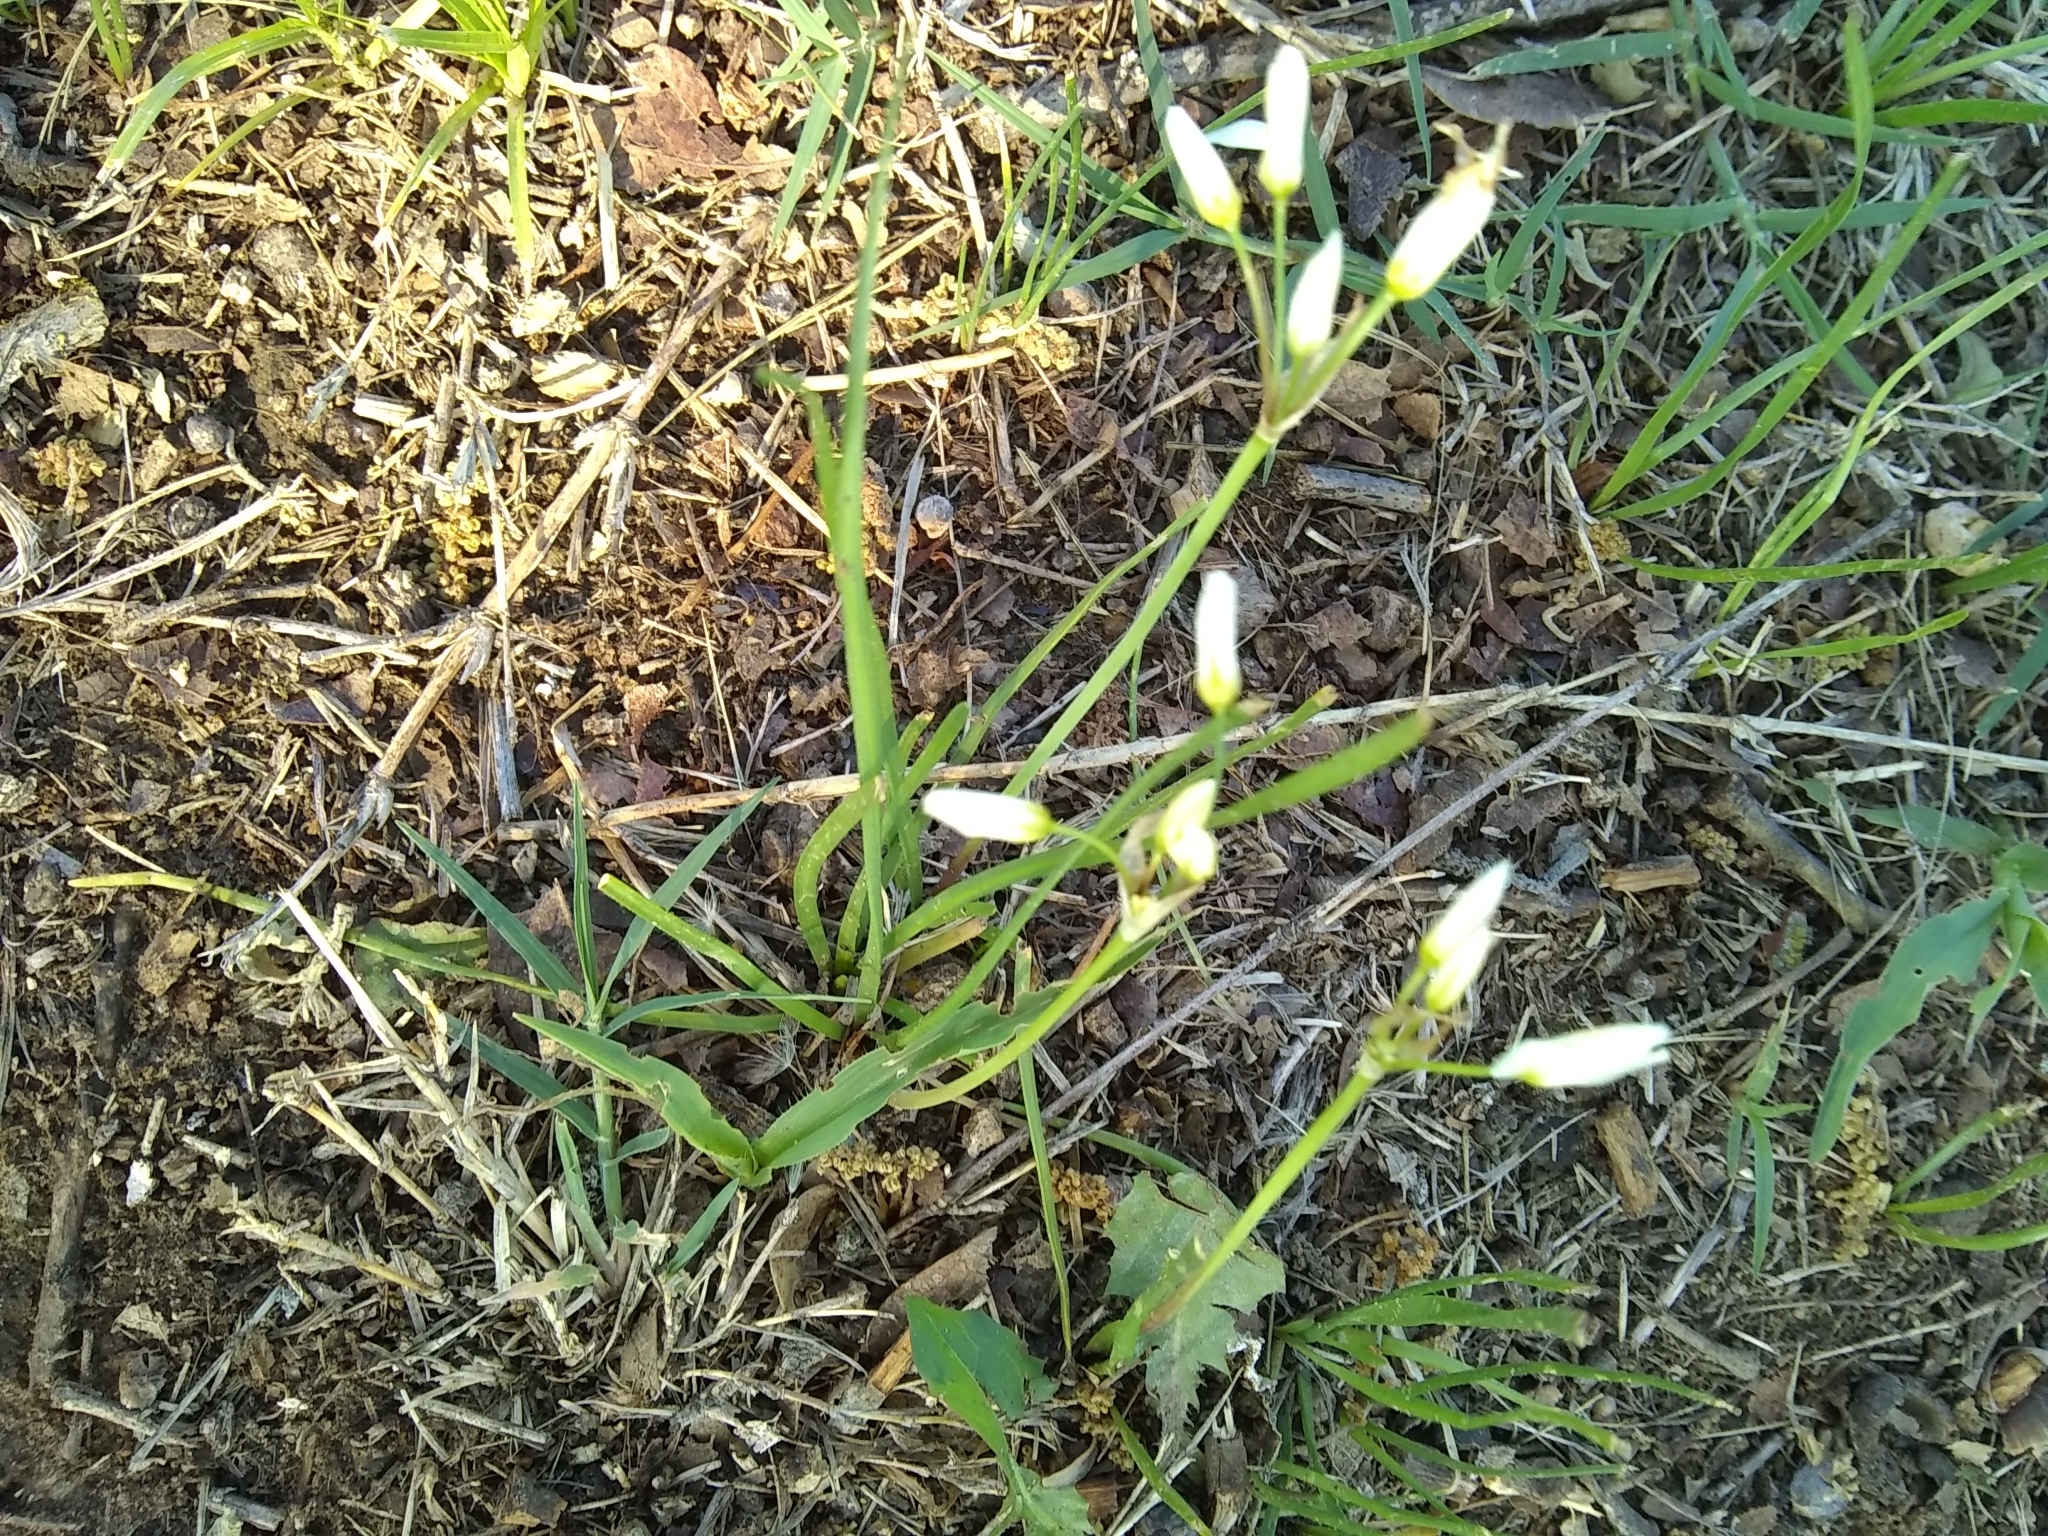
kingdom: Plantae
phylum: Tracheophyta
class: Liliopsida
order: Asparagales
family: Amaryllidaceae
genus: Nothoscordum
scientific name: Nothoscordum bivalve
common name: Crow-poison
